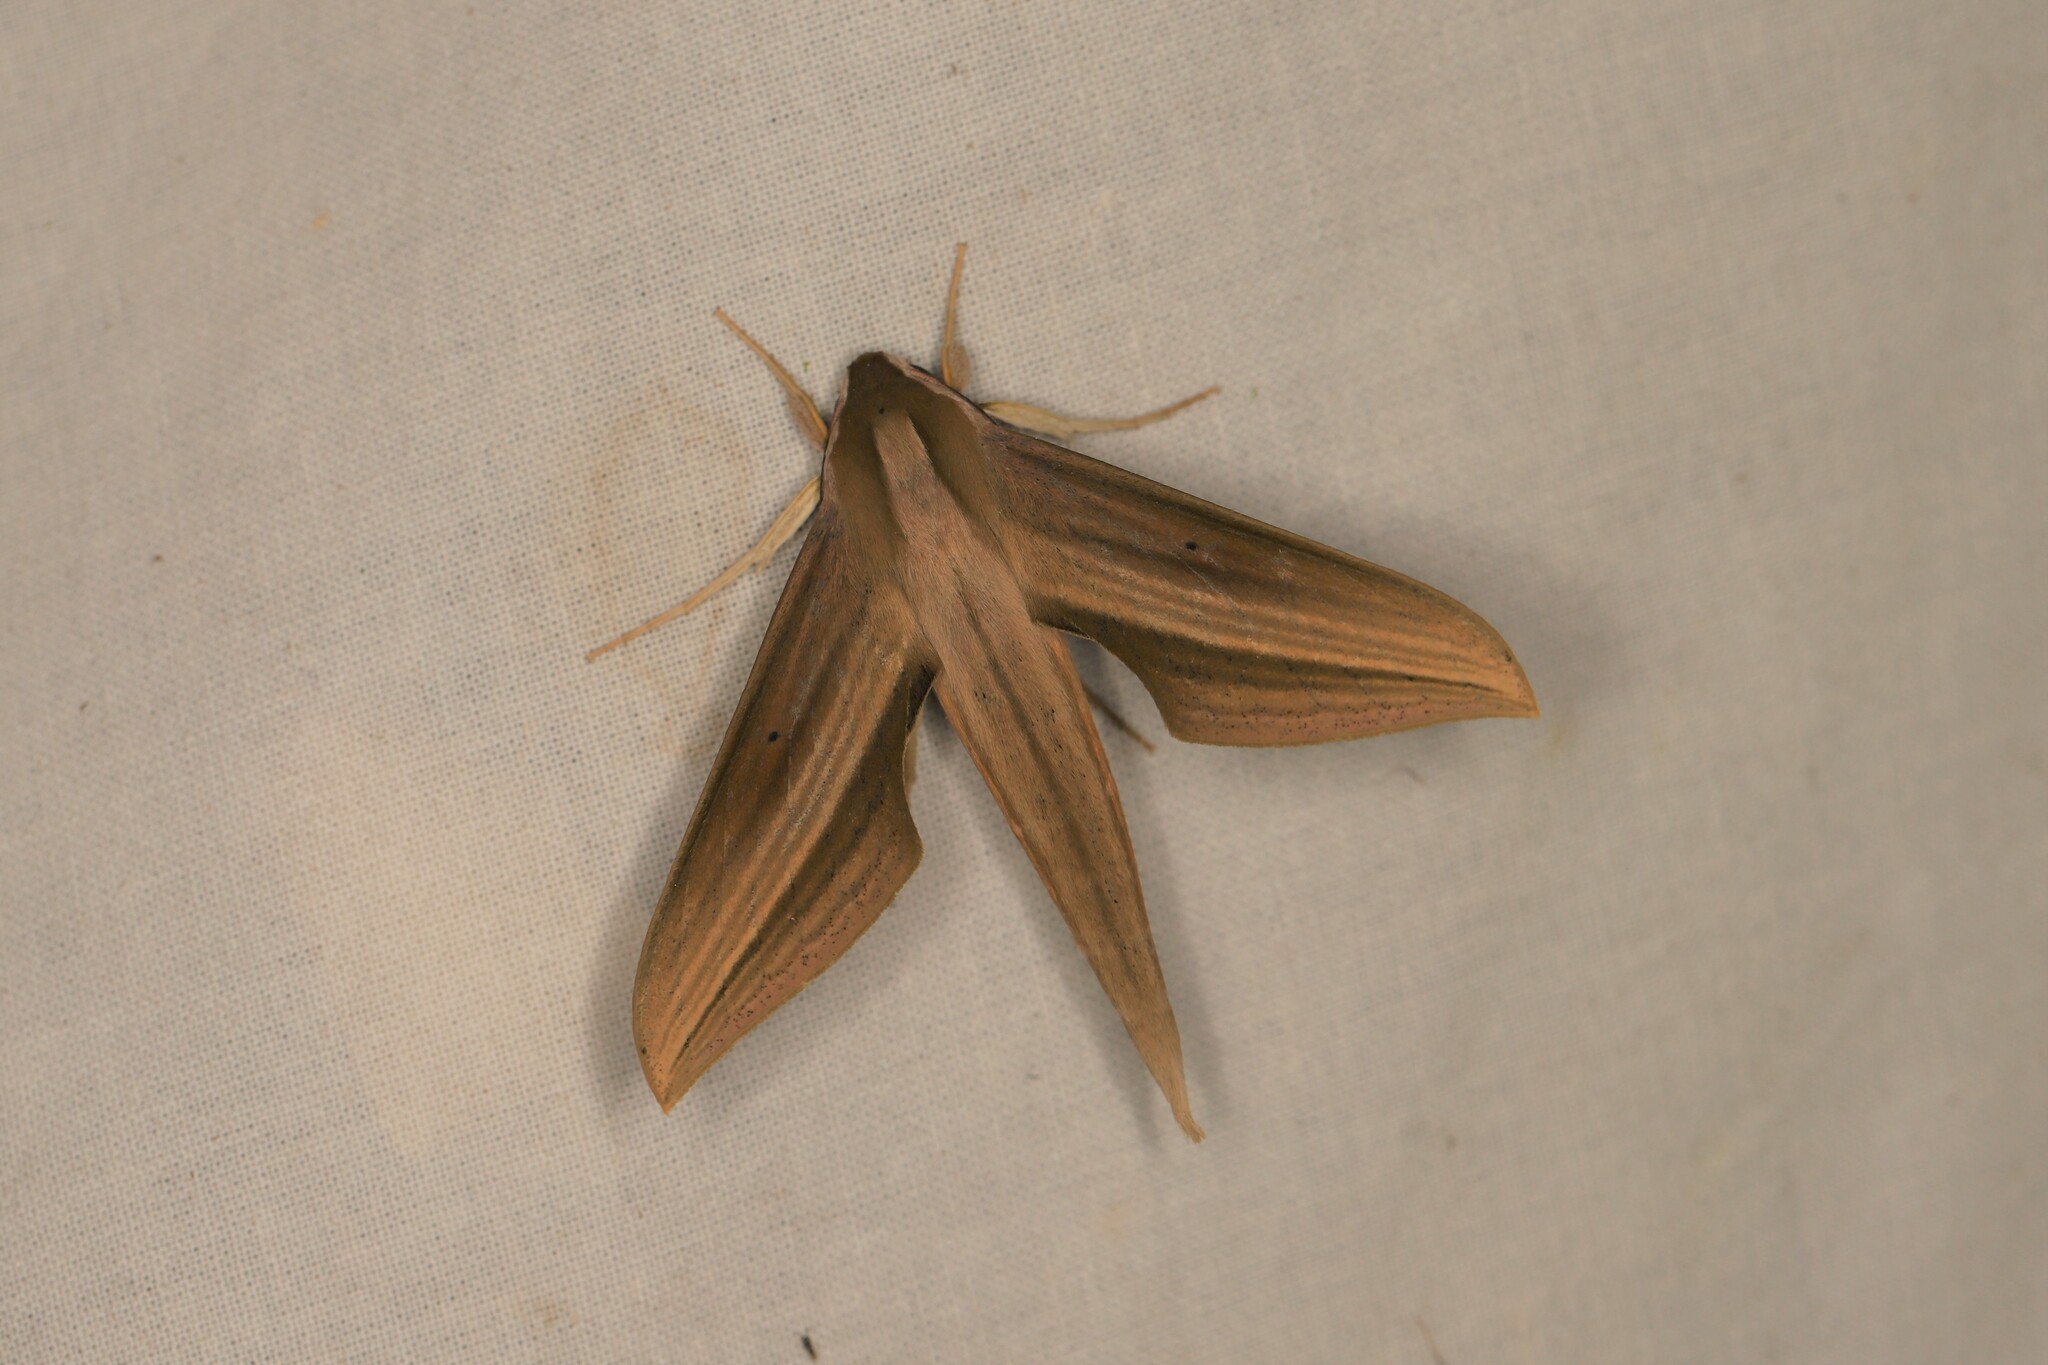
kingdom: Animalia
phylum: Arthropoda
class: Insecta
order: Lepidoptera
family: Sphingidae
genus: Xylophanes
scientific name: Xylophanes loelia
